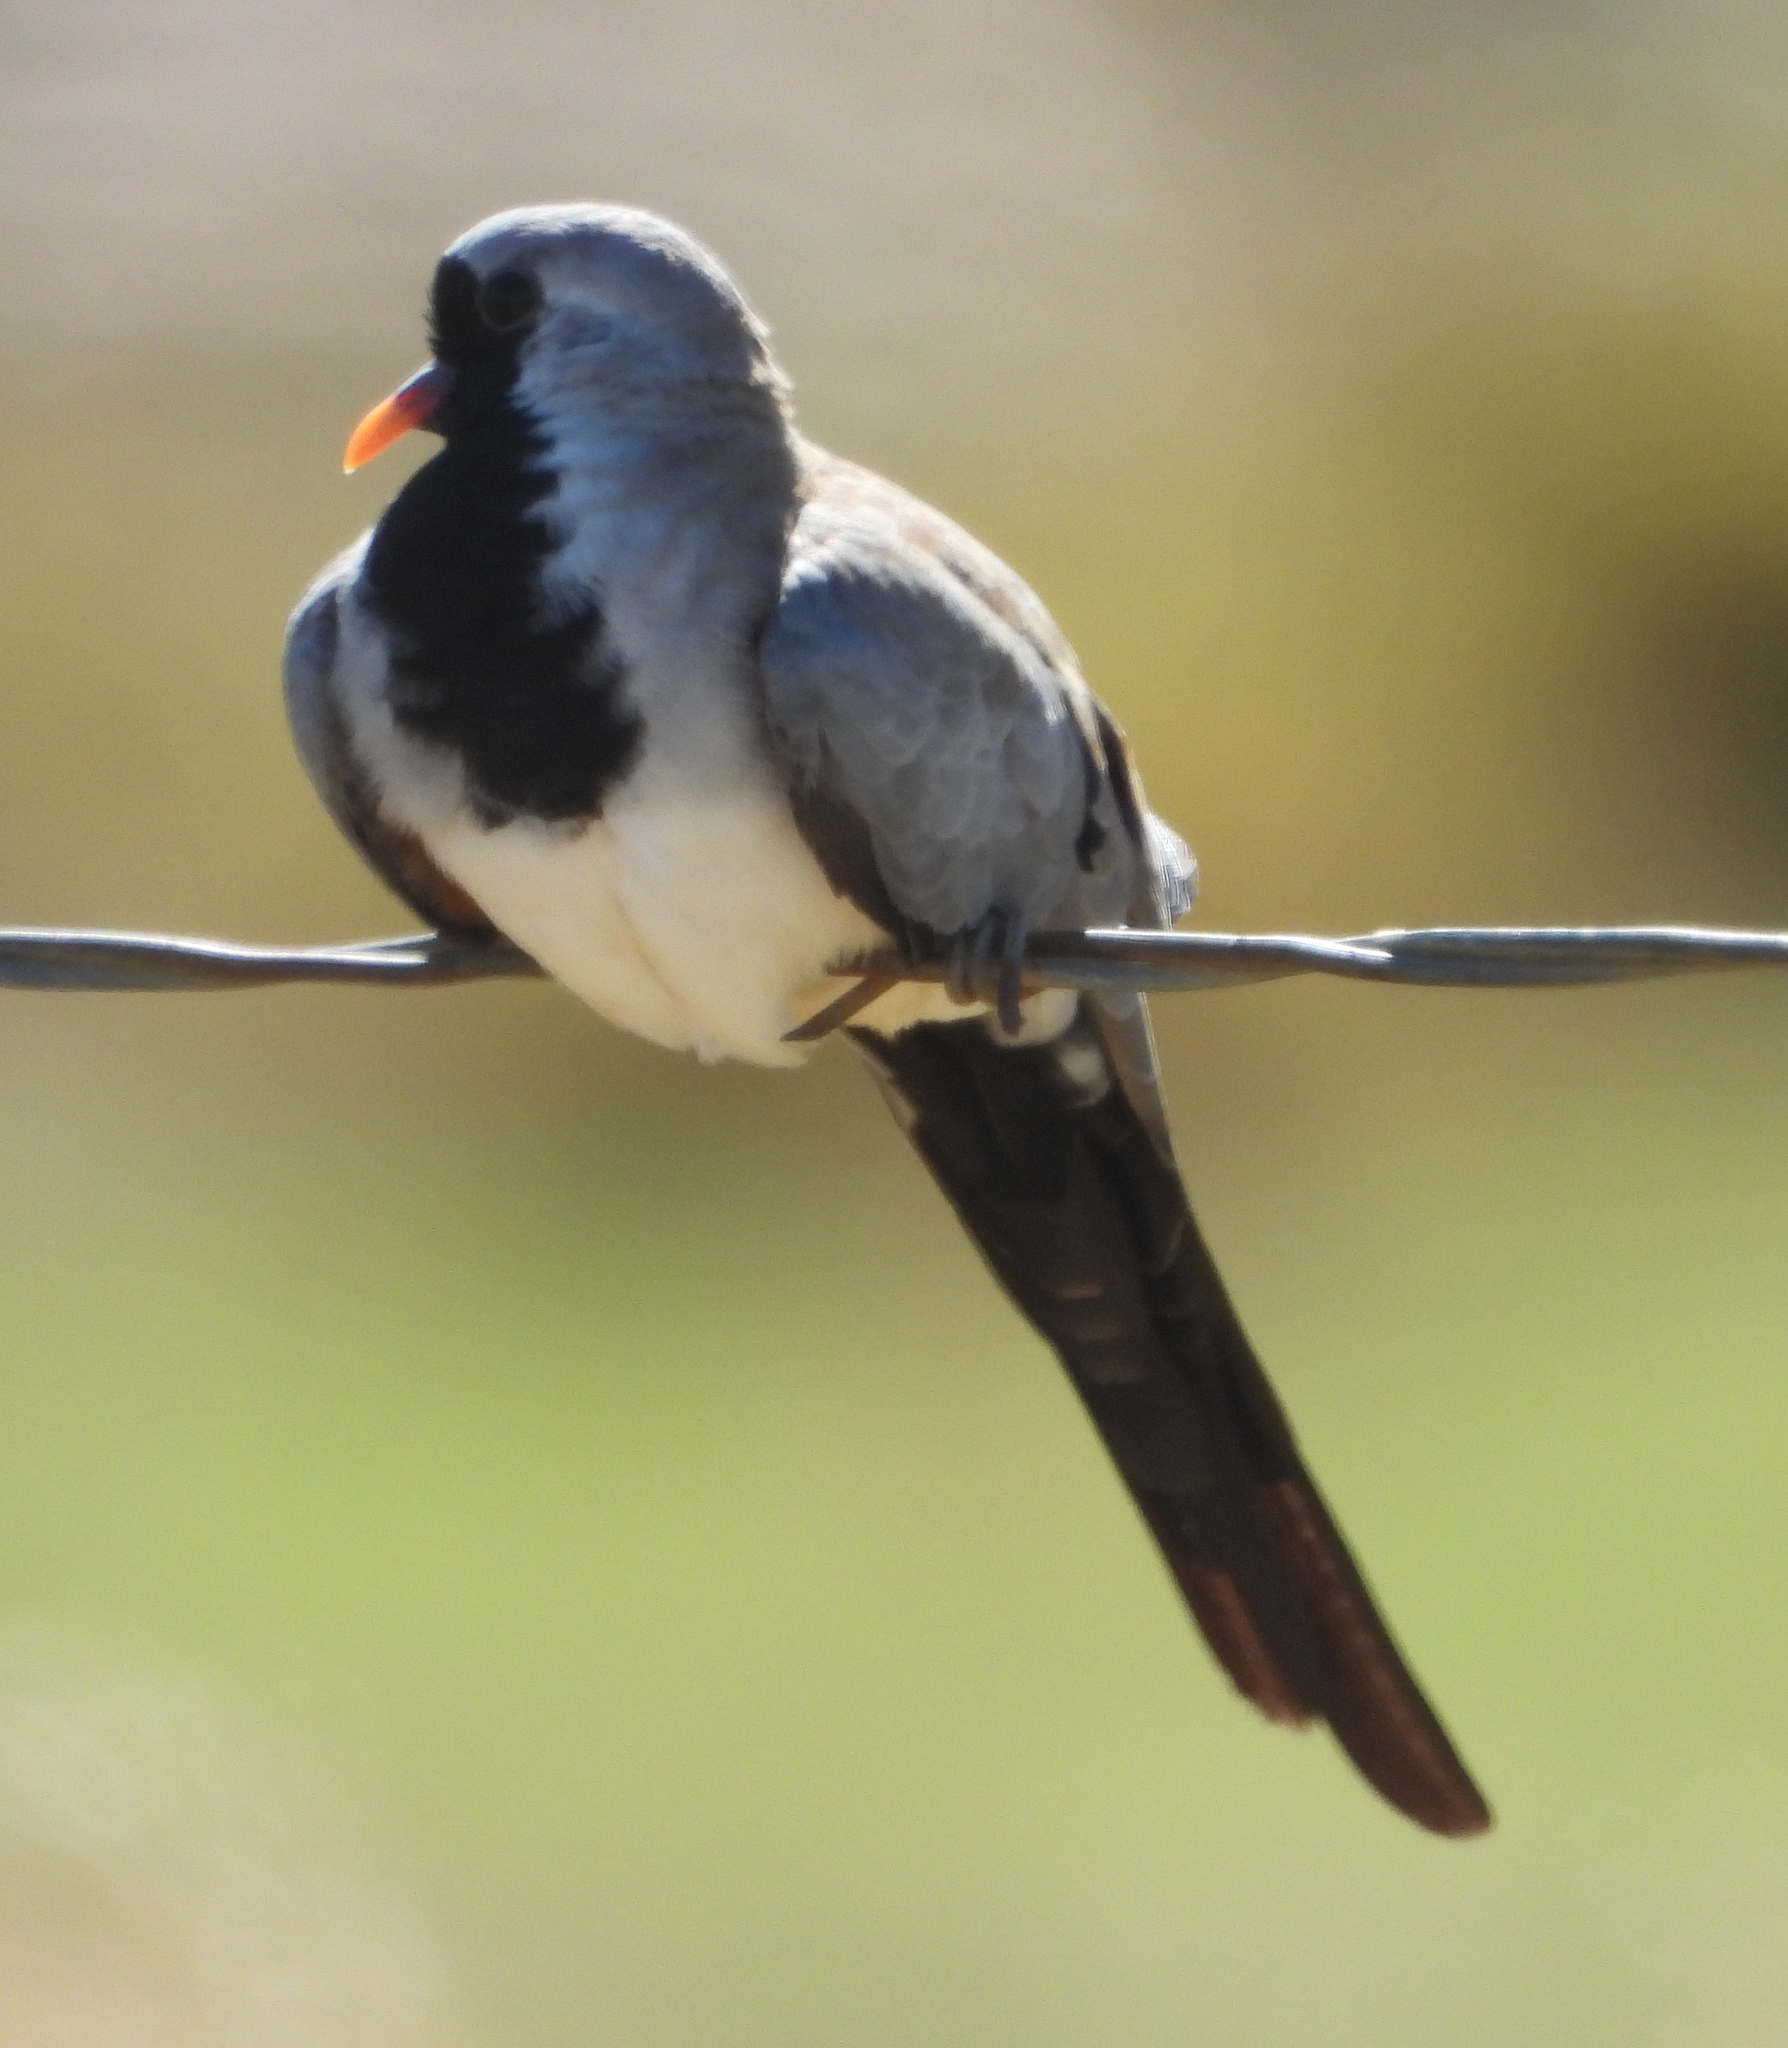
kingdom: Animalia
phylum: Chordata
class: Aves
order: Columbiformes
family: Columbidae
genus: Oena
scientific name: Oena capensis
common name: Namaqua dove
